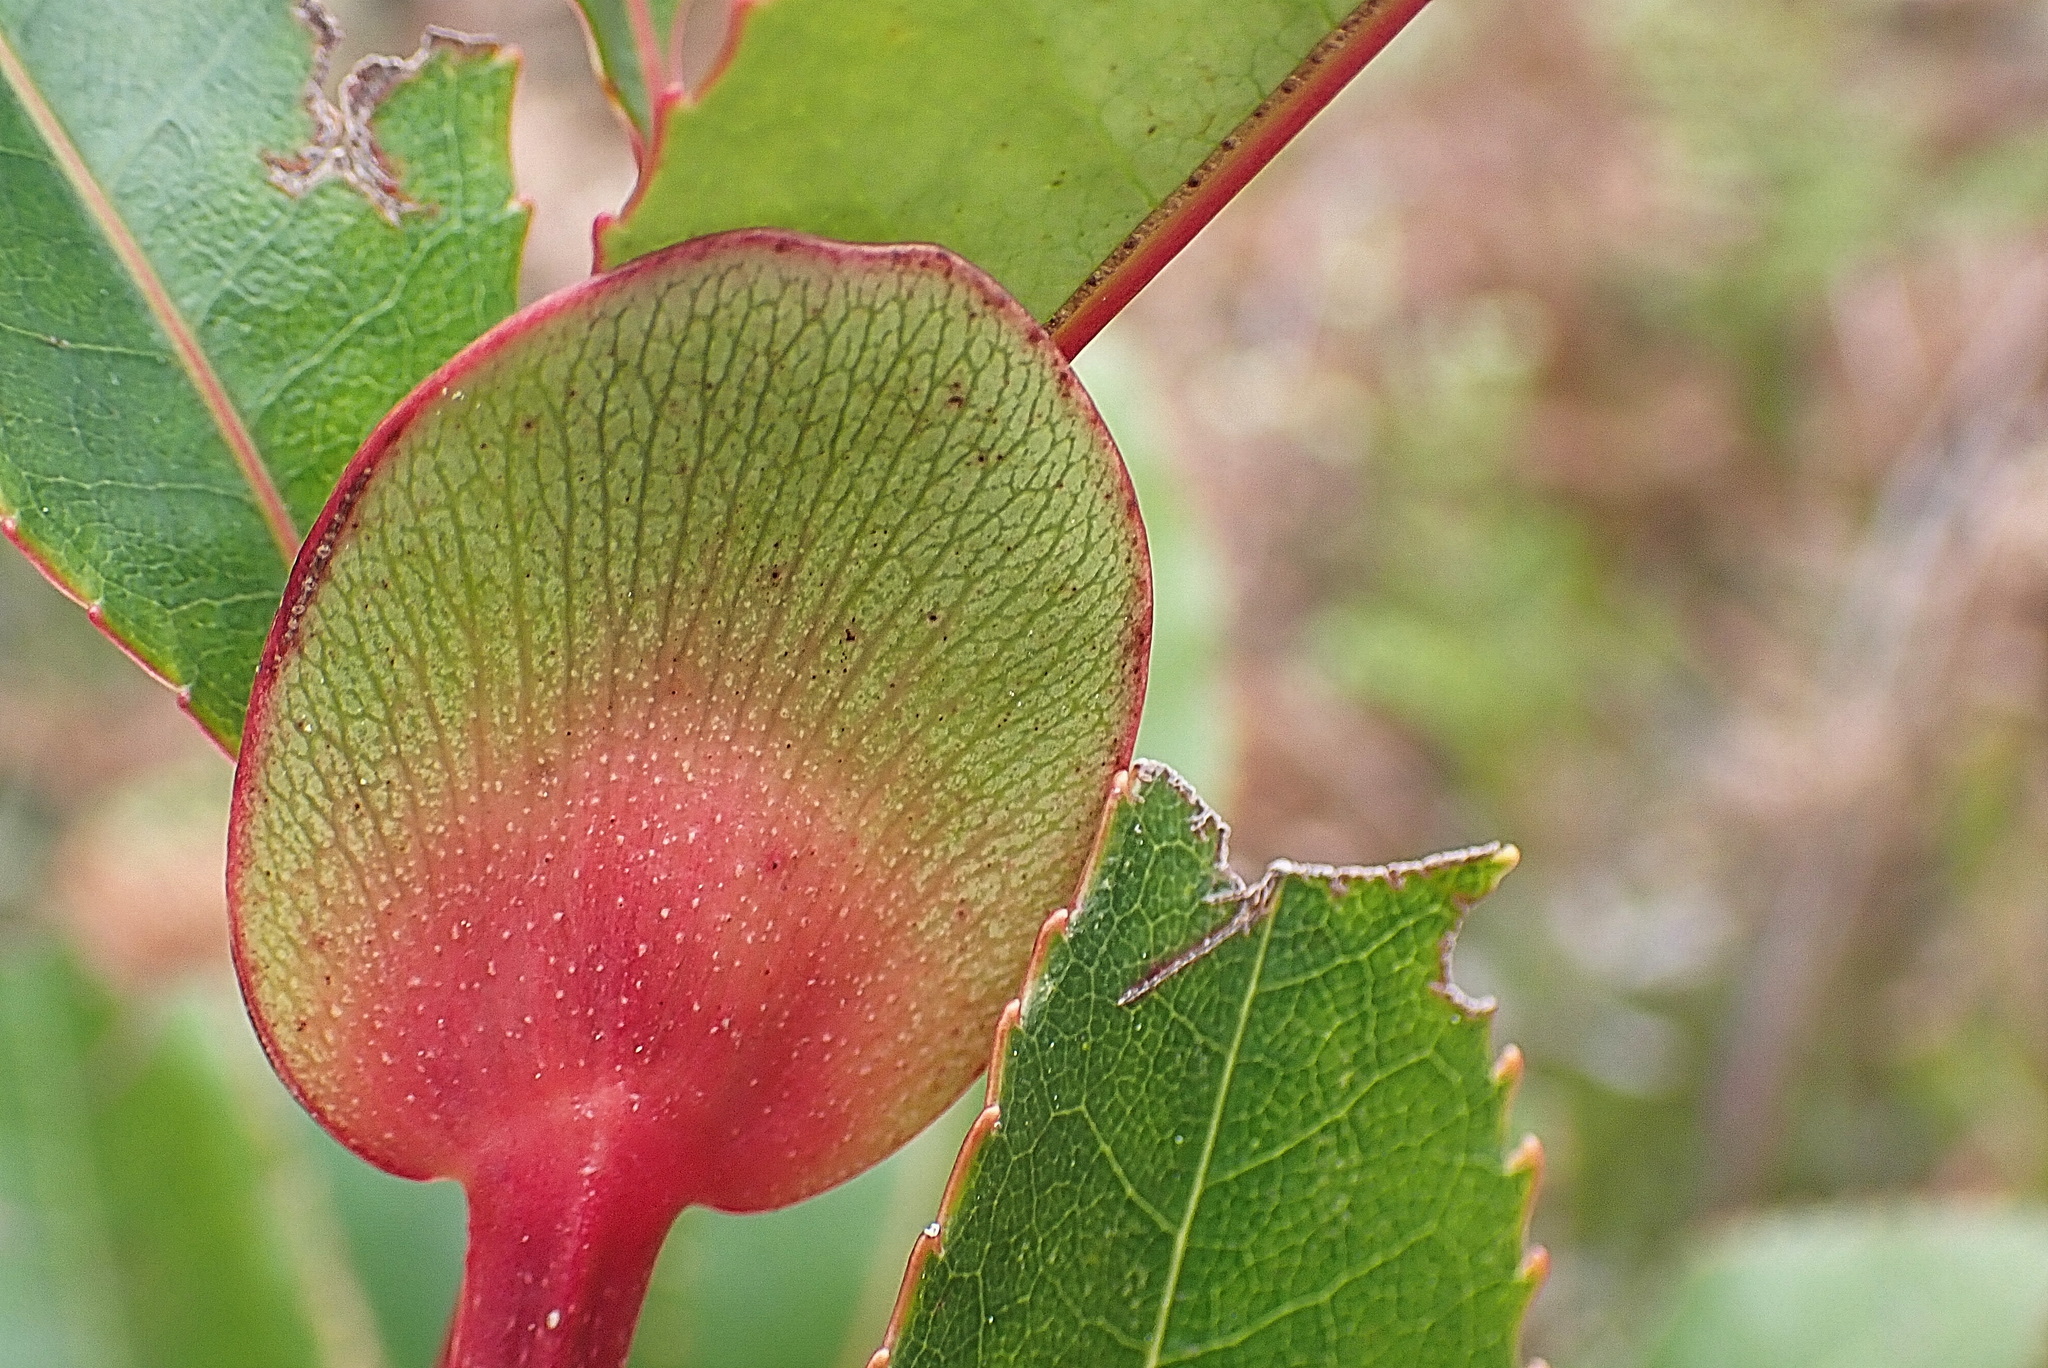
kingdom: Plantae
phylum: Tracheophyta
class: Magnoliopsida
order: Oxalidales
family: Cunoniaceae
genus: Cunonia
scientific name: Cunonia capensis
